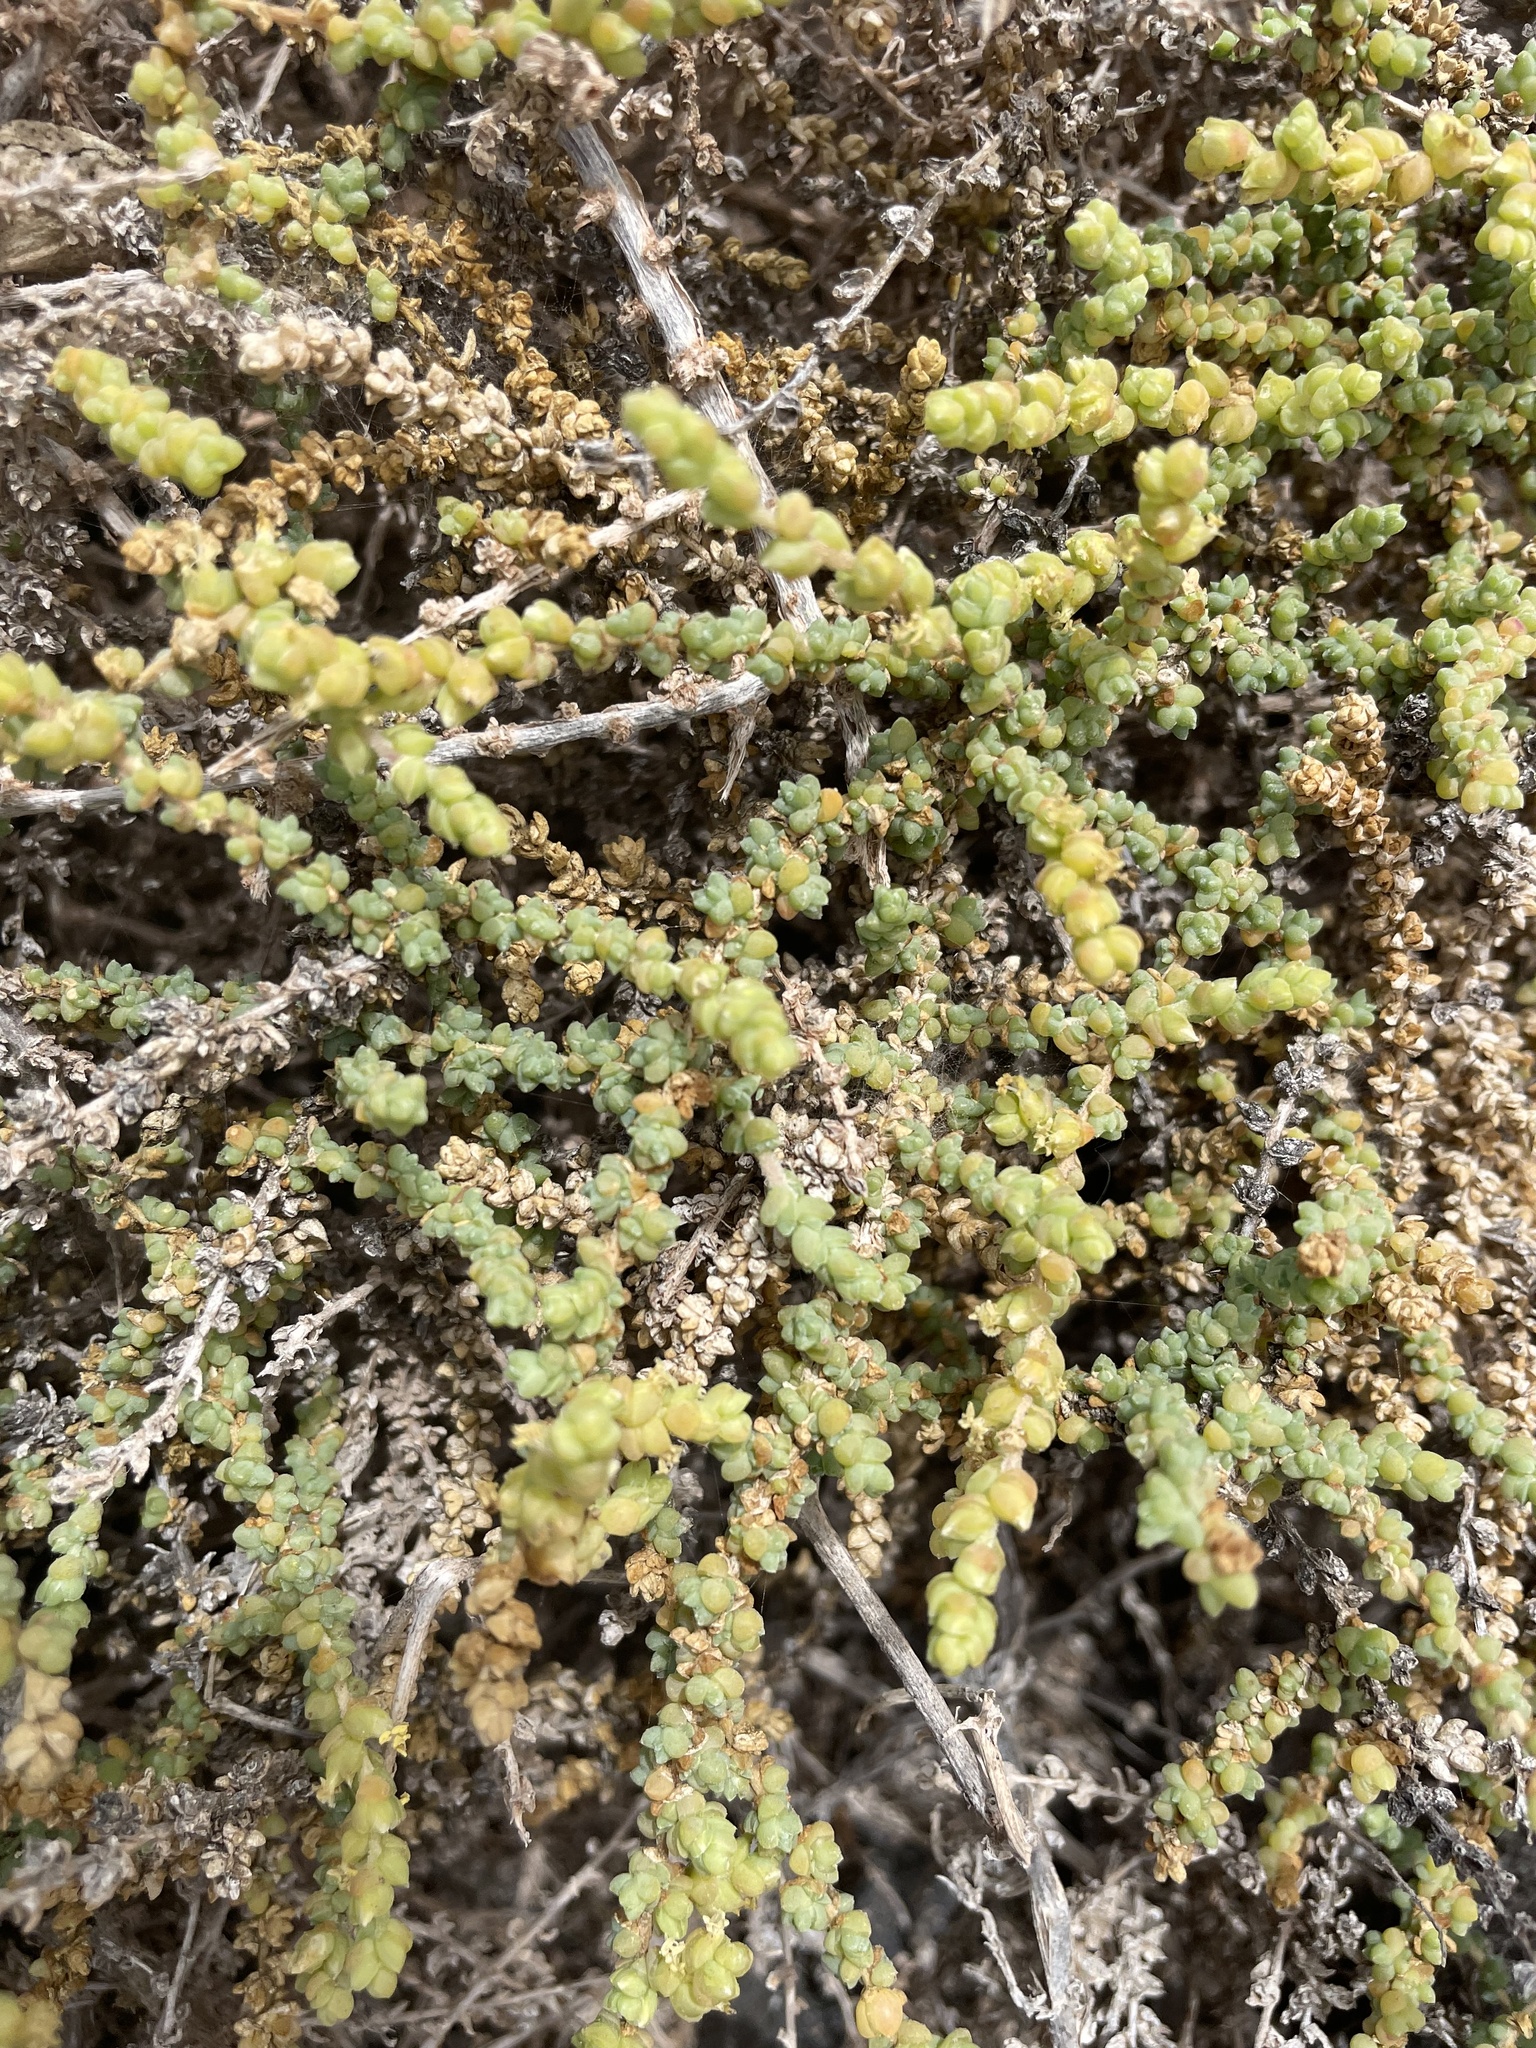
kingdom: Plantae
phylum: Tracheophyta
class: Magnoliopsida
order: Caryophyllales
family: Amaranthaceae
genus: Caroxylon
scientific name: Caroxylon tetrandrum
